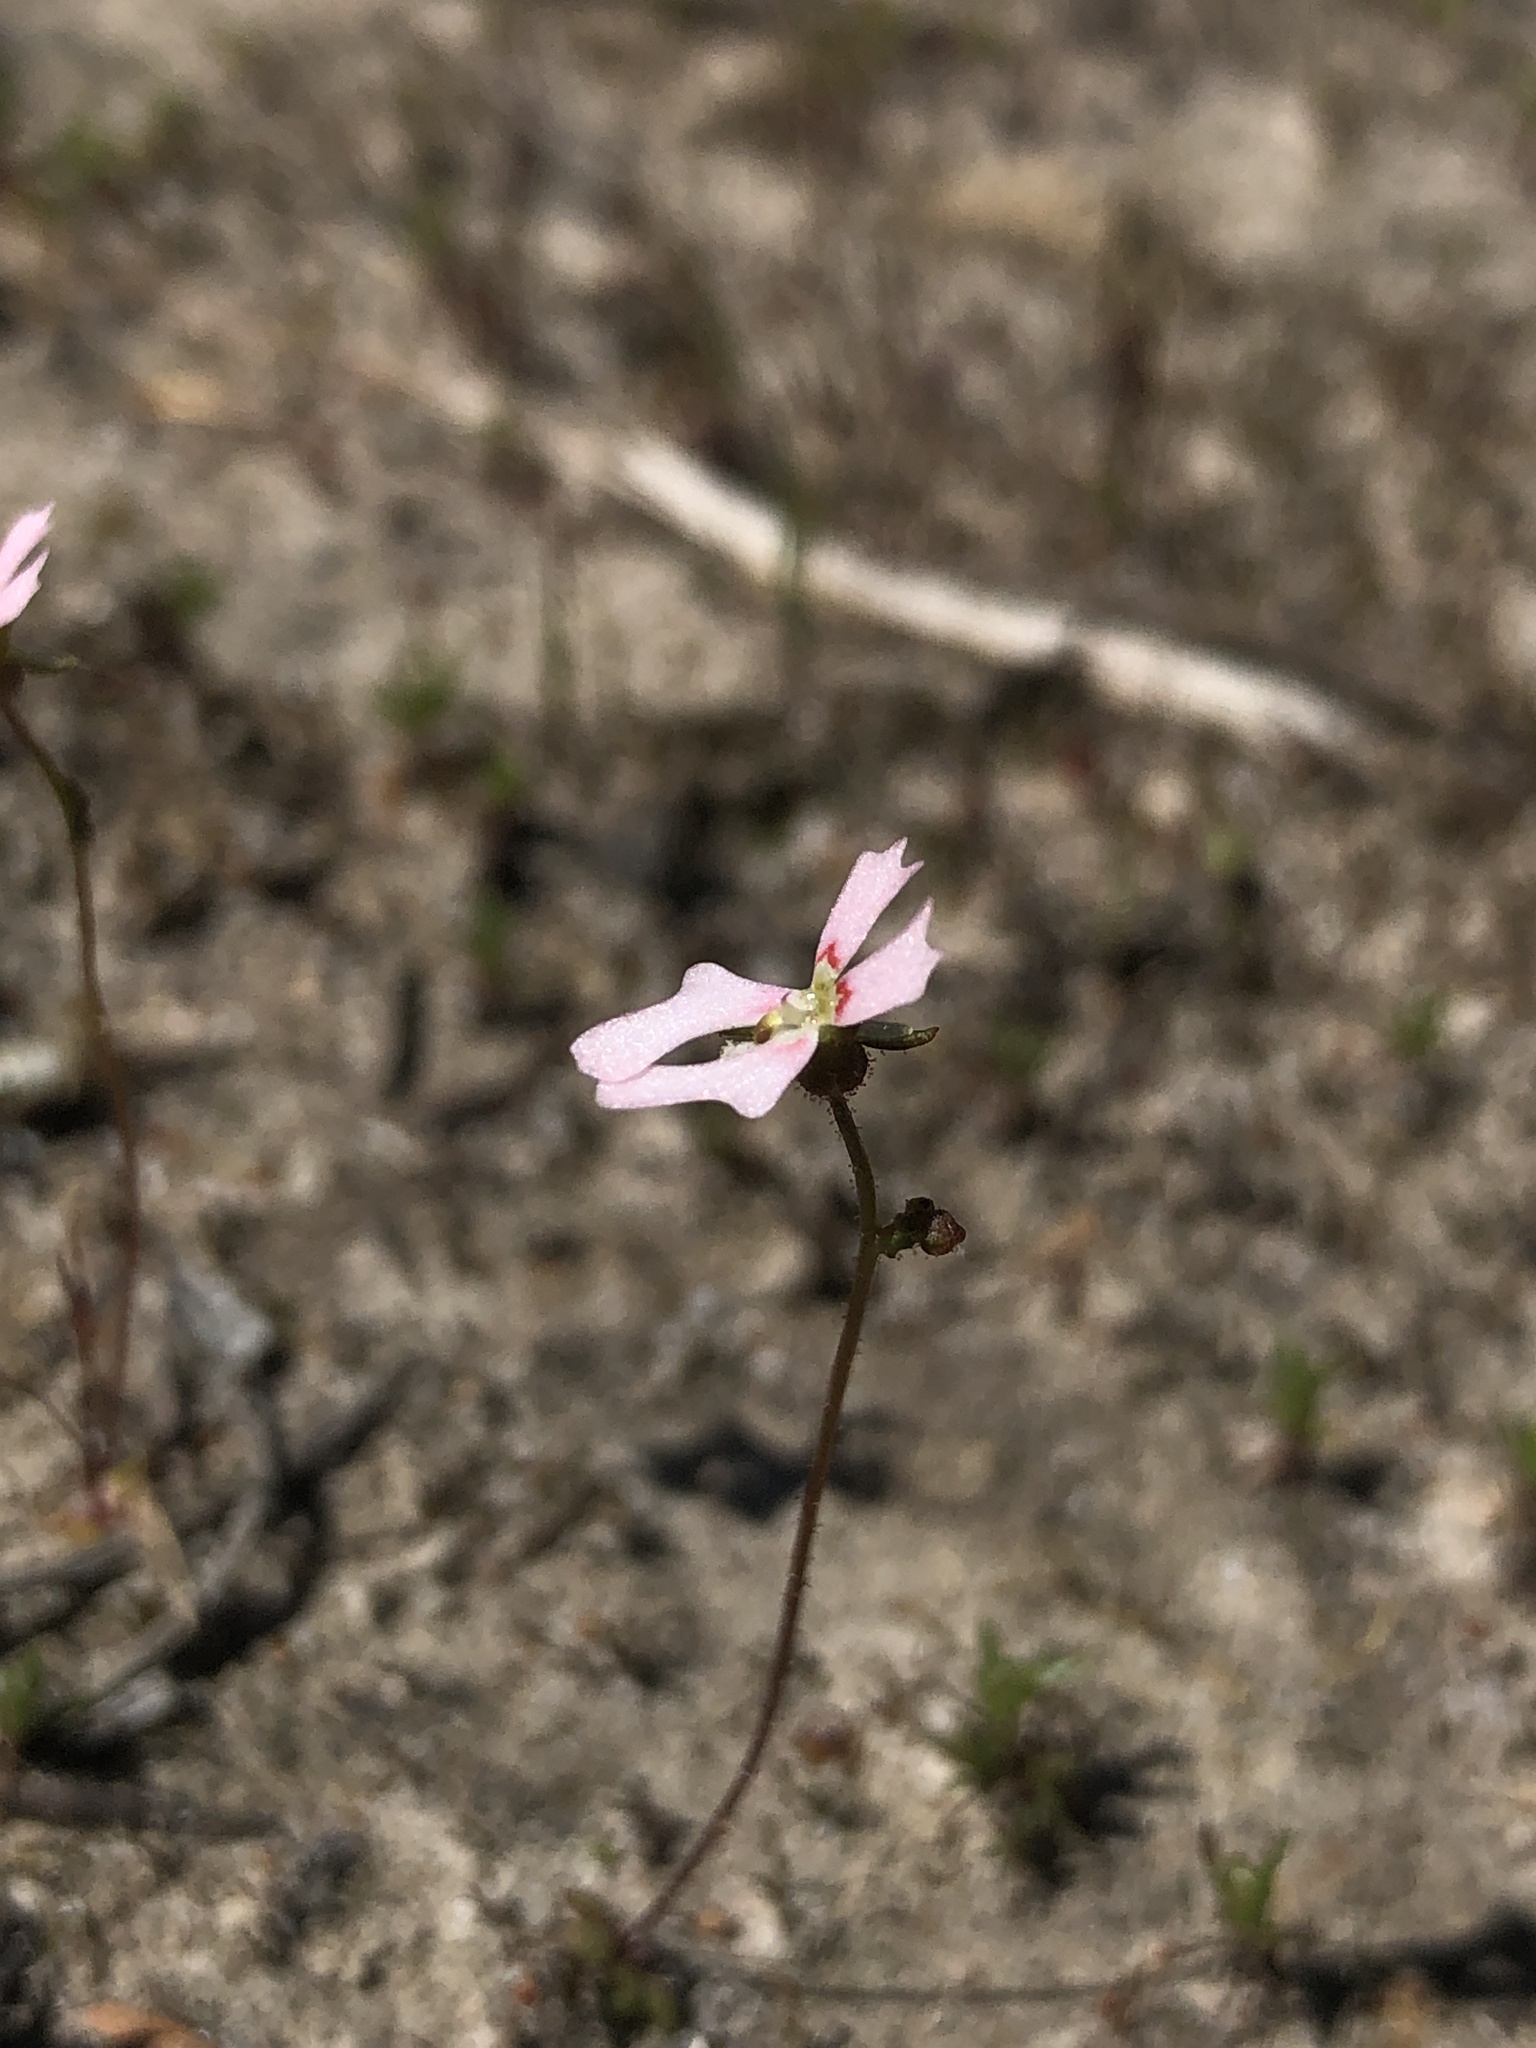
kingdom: Plantae
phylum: Tracheophyta
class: Magnoliopsida
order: Asterales
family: Stylidiaceae
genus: Stylidium
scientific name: Stylidium calcaratum
